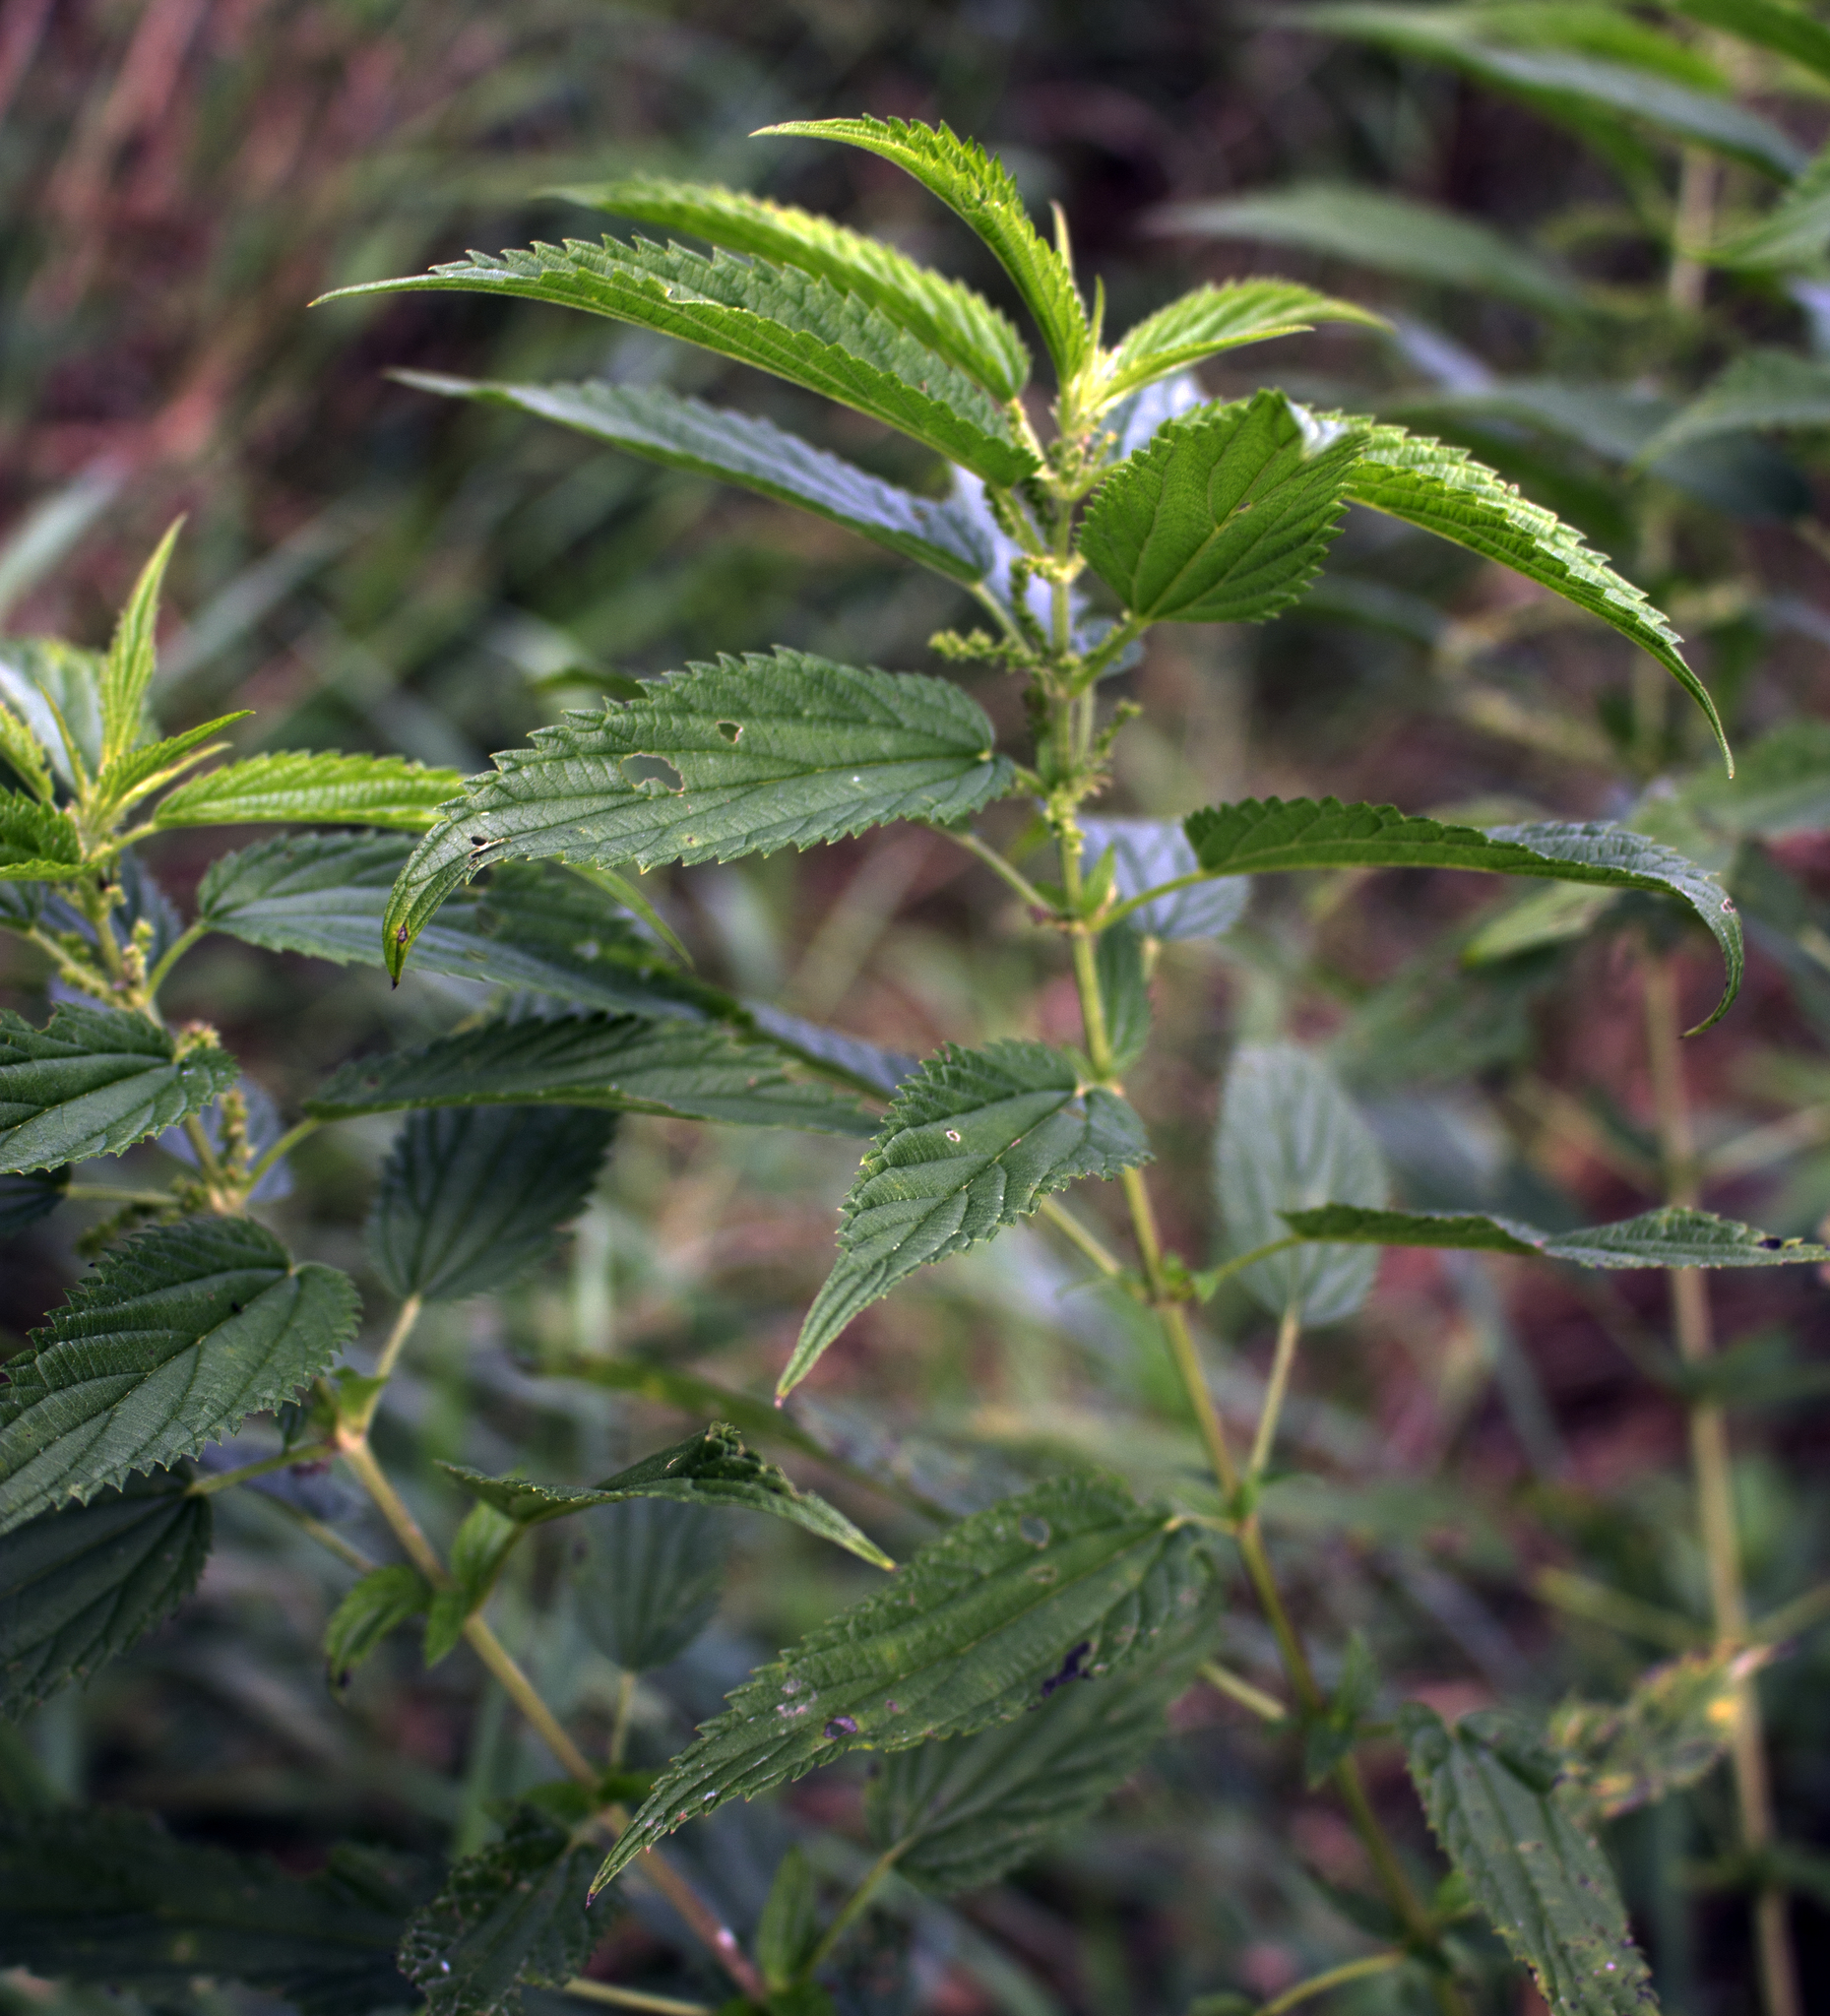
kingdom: Plantae
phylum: Tracheophyta
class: Magnoliopsida
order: Rosales
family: Urticaceae
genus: Urtica
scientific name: Urtica dioica
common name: Common nettle
